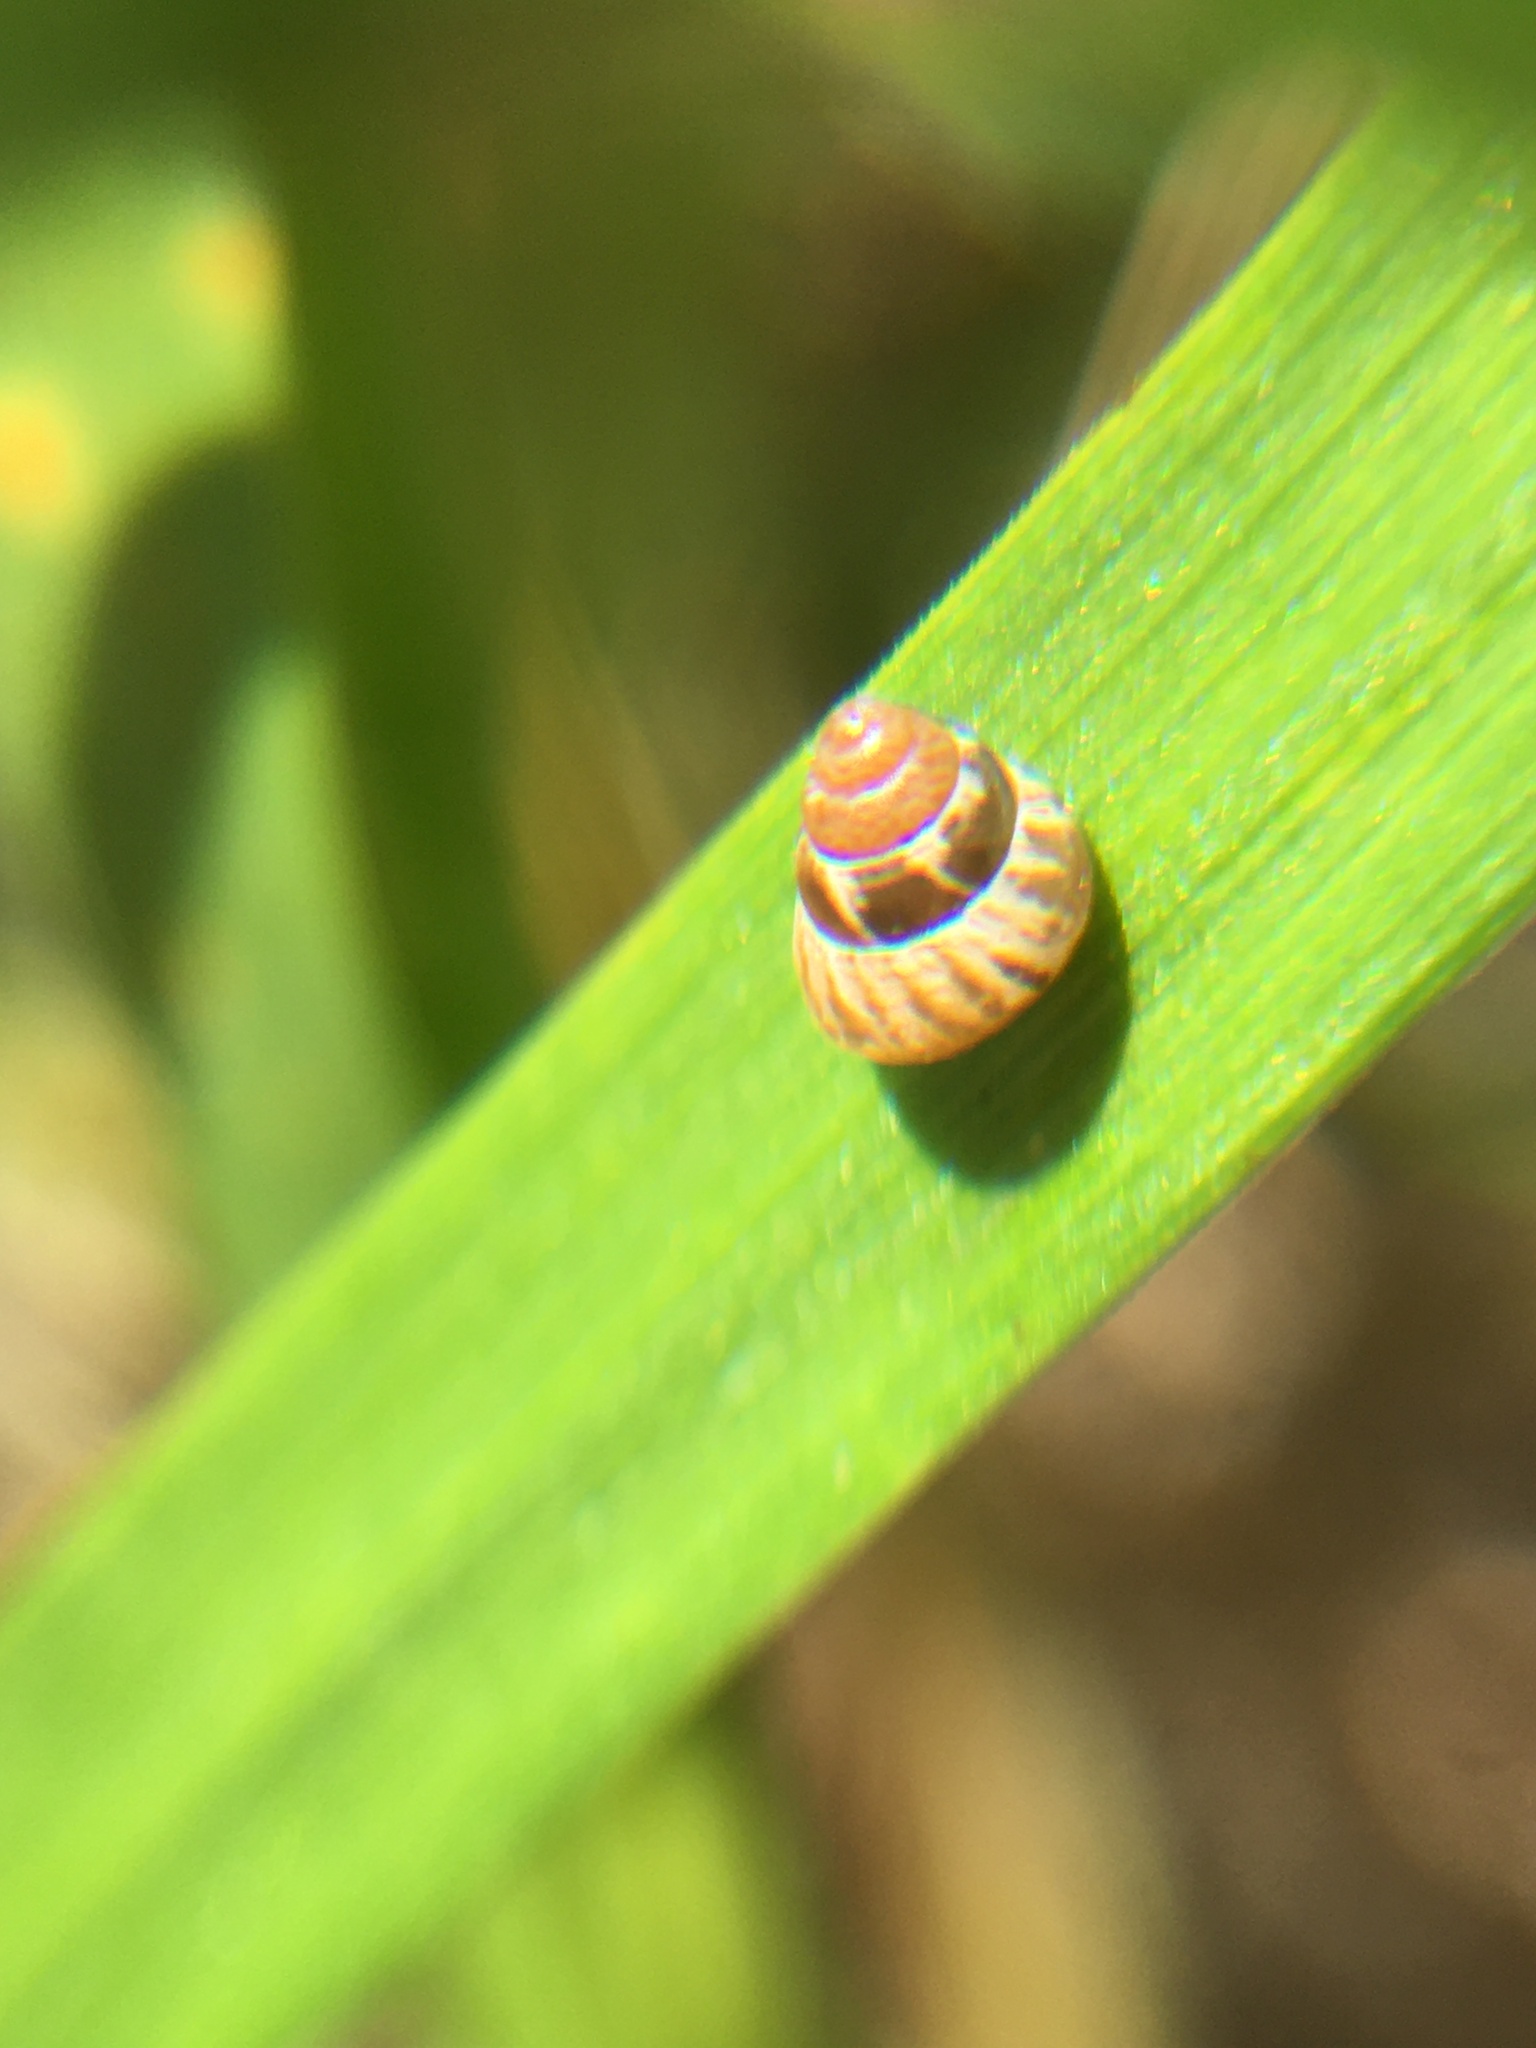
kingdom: Animalia
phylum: Mollusca
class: Gastropoda
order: Stylommatophora
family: Geomitridae
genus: Cochlicella
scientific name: Cochlicella barbara
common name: Potbellied helicellid
